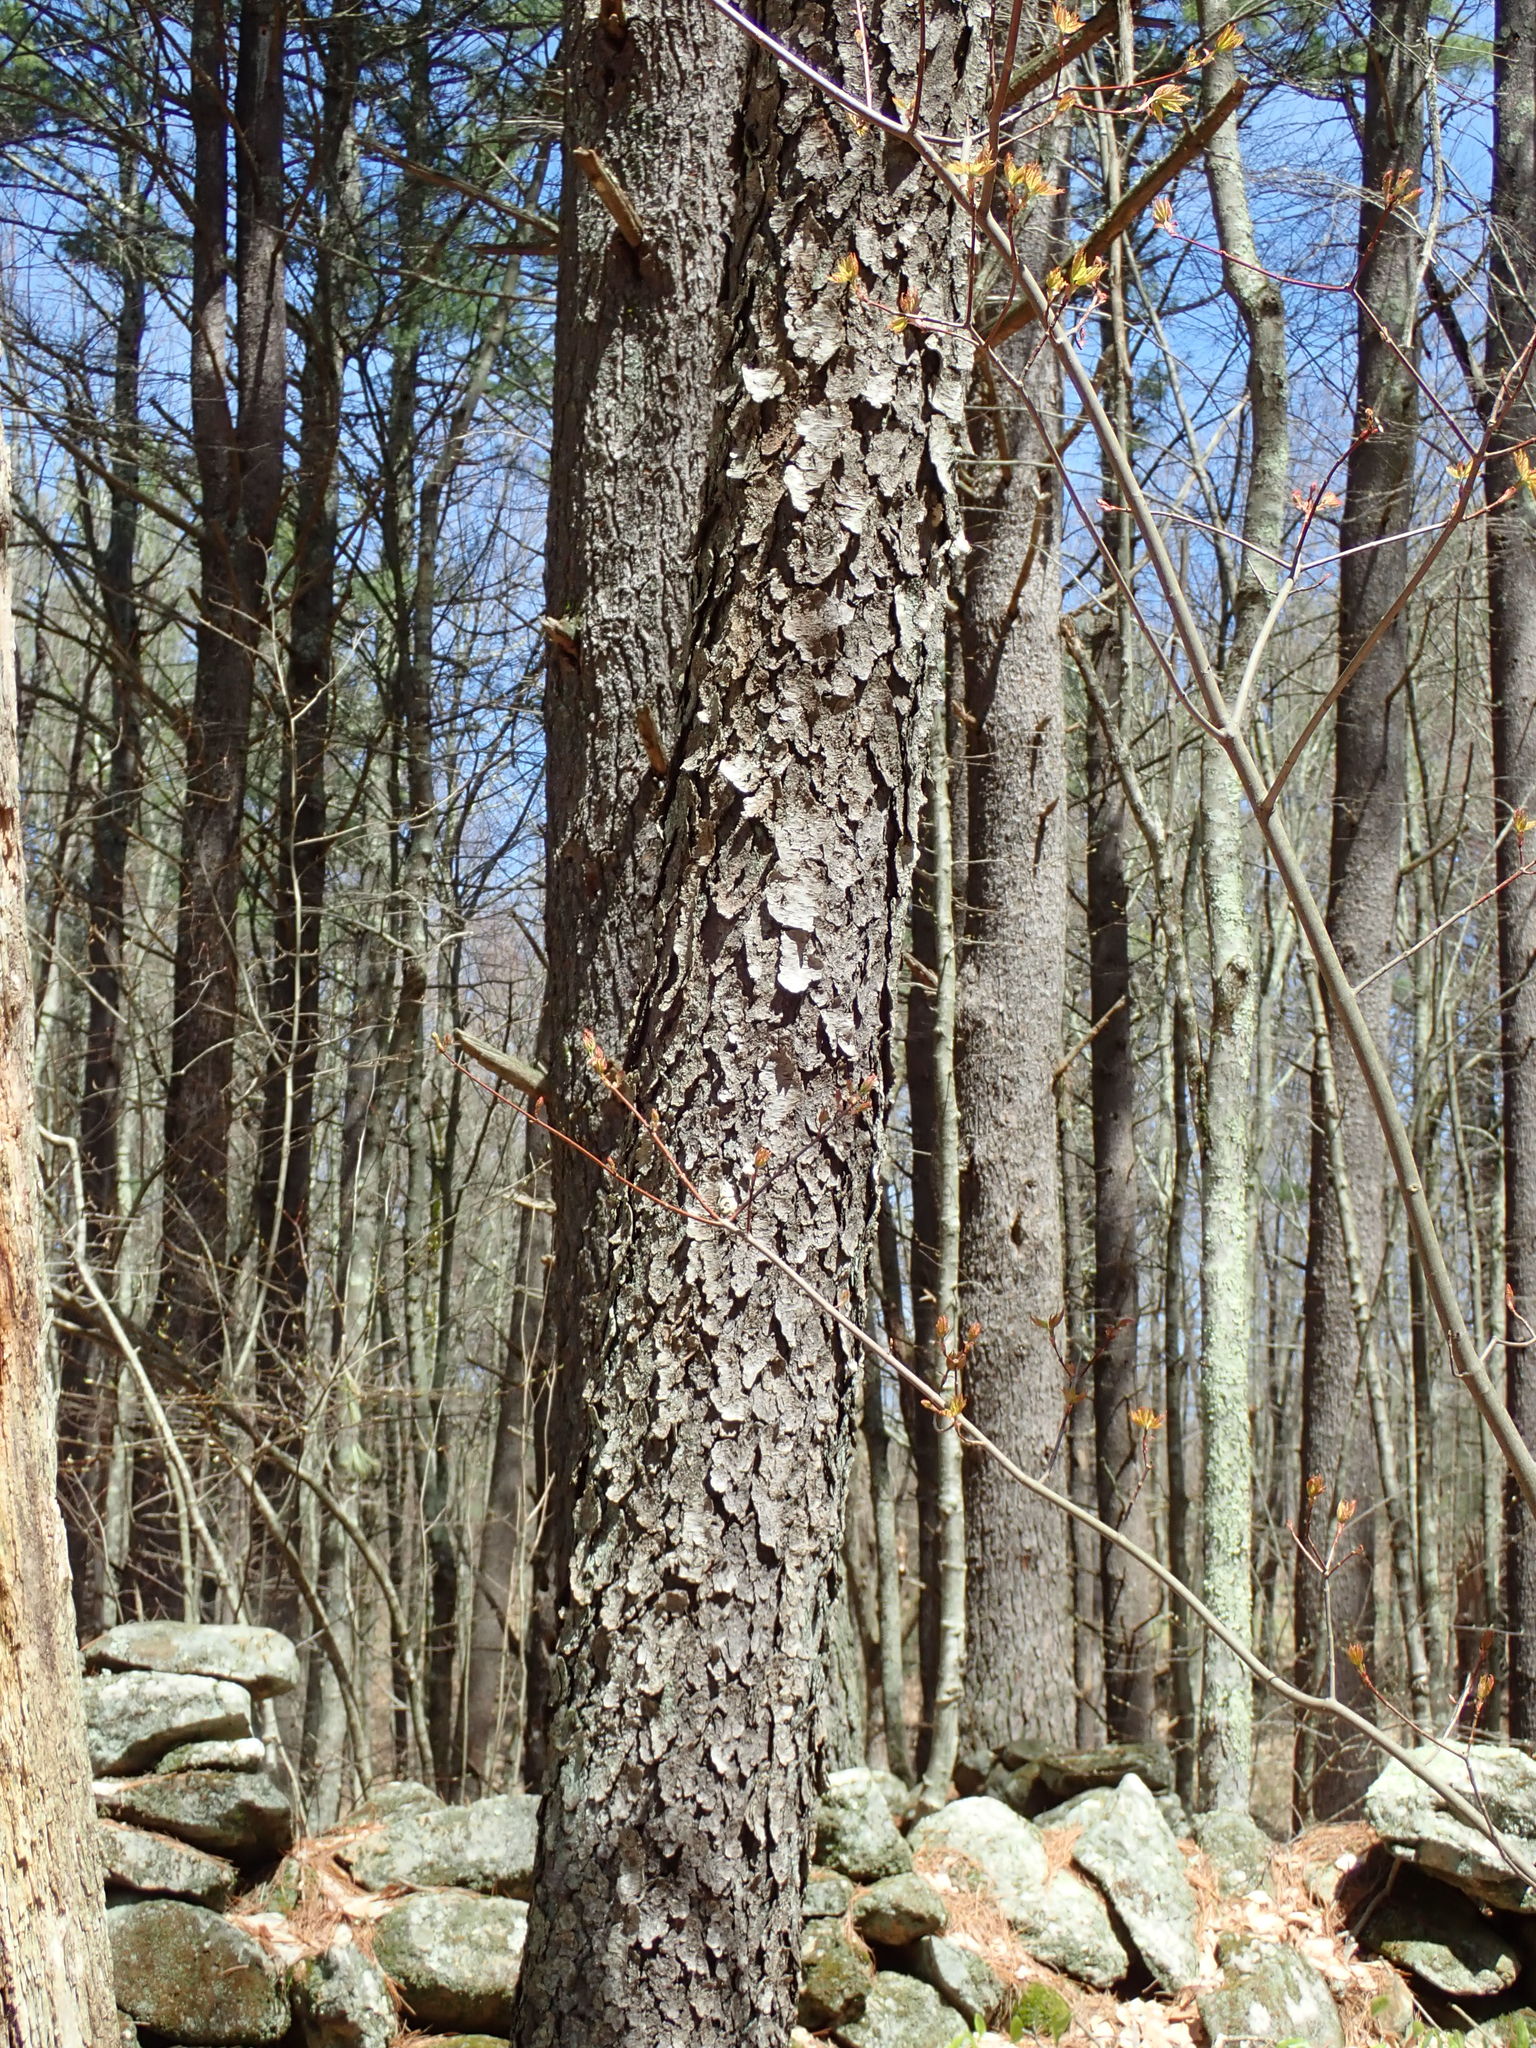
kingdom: Plantae
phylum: Tracheophyta
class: Magnoliopsida
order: Rosales
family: Rosaceae
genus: Prunus
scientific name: Prunus serotina
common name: Black cherry
